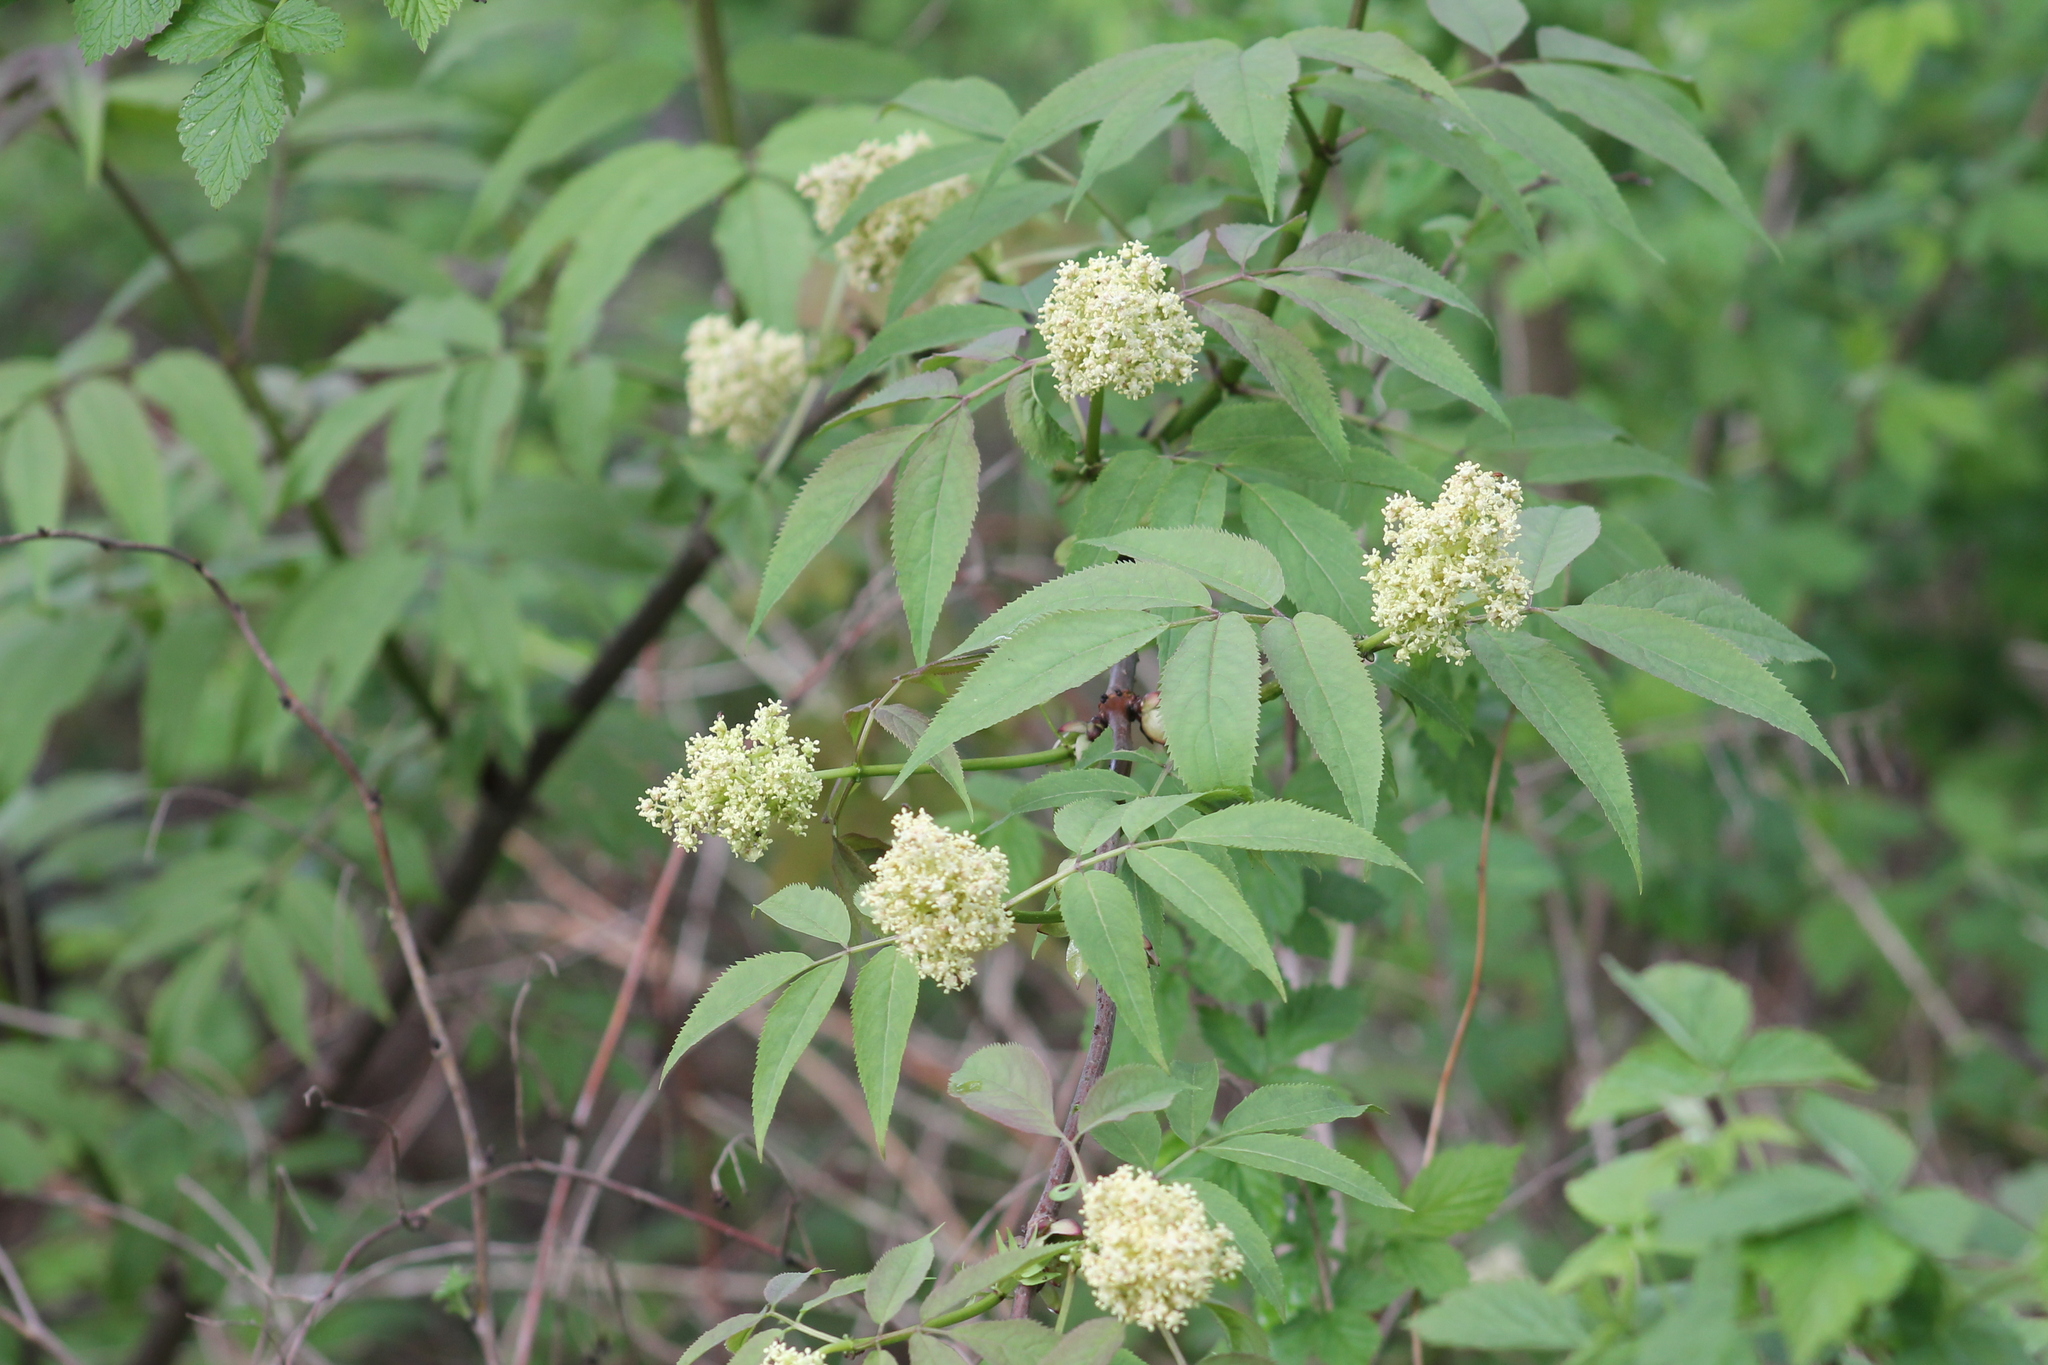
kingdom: Plantae
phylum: Tracheophyta
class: Magnoliopsida
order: Dipsacales
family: Viburnaceae
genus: Sambucus
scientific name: Sambucus racemosa
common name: Red-berried elder
